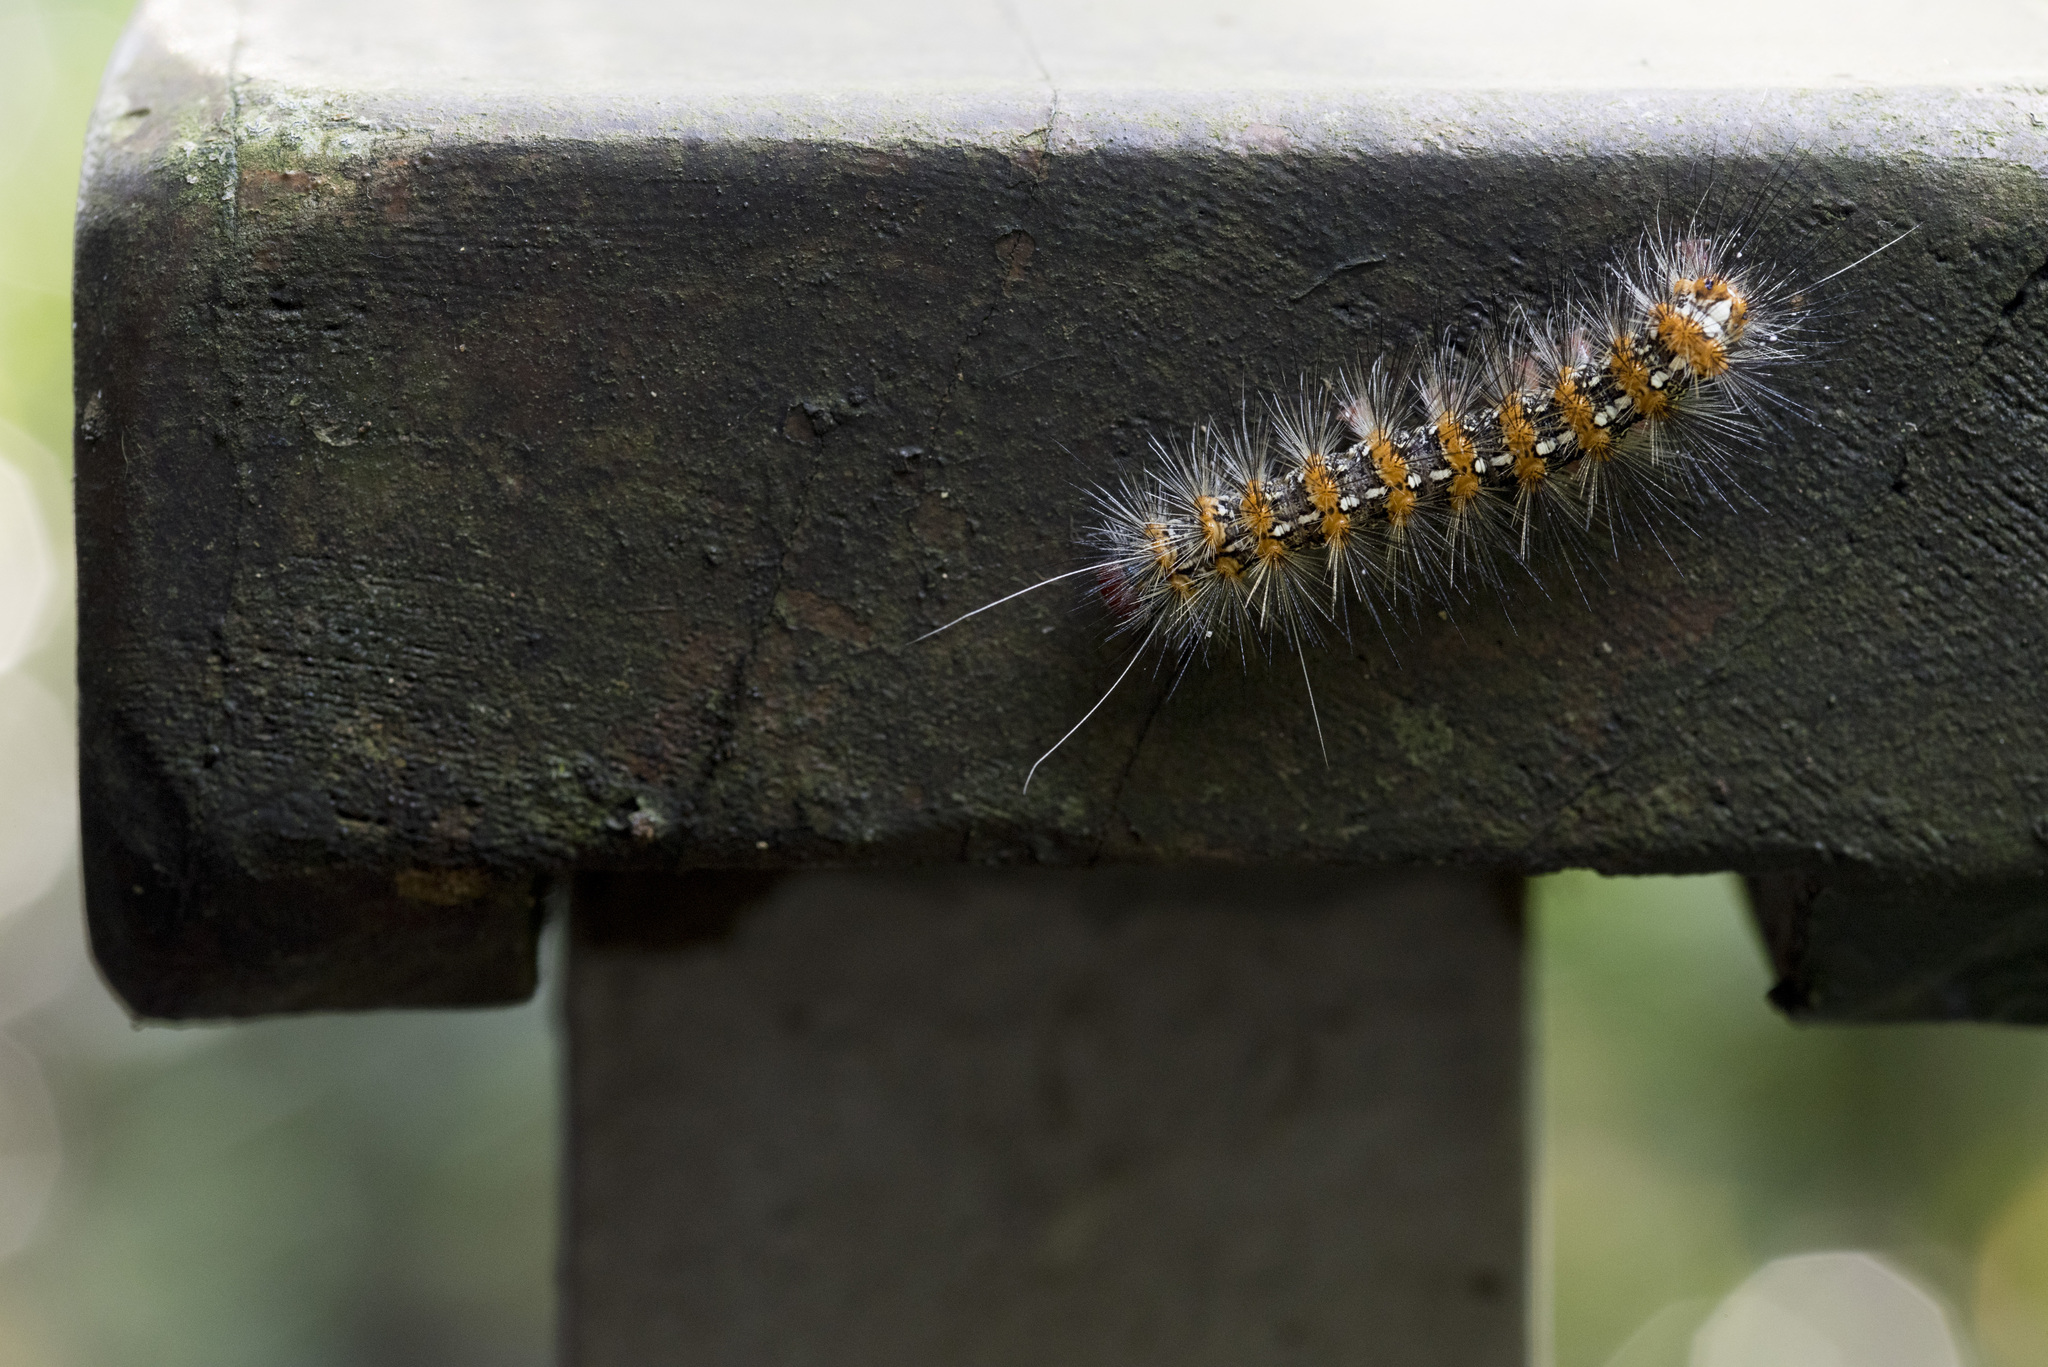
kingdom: Animalia
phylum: Arthropoda
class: Insecta
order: Lepidoptera
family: Erebidae
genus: Lemyra
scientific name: Lemyra imparilis
